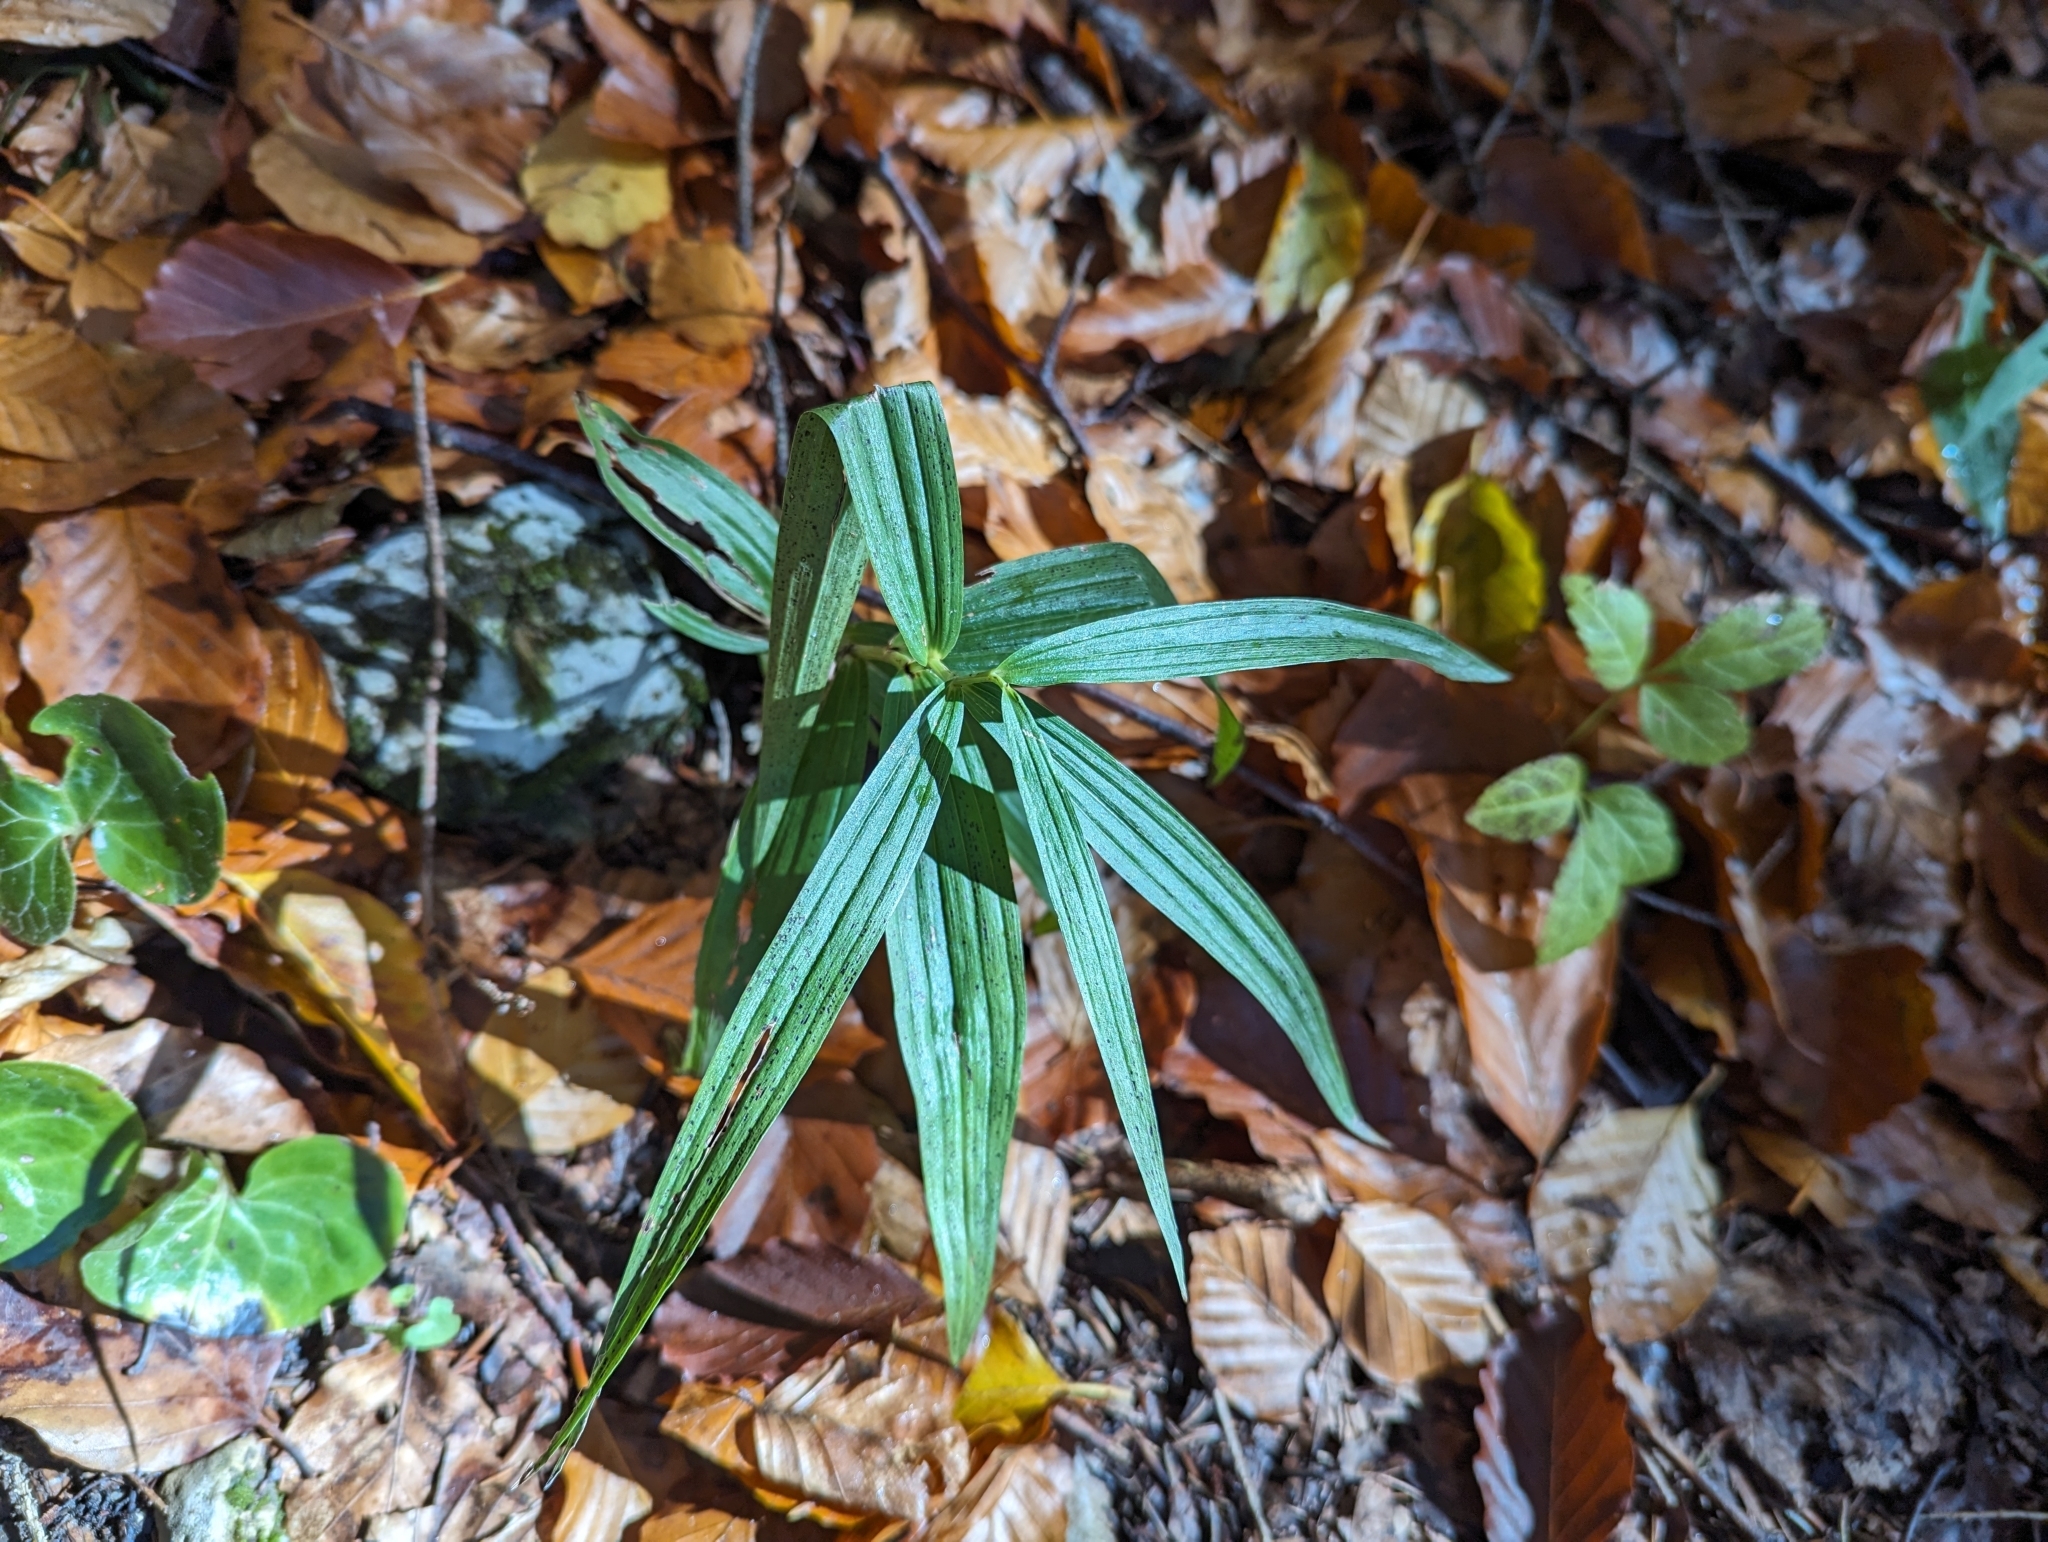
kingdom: Plantae
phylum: Tracheophyta
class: Liliopsida
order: Asparagales
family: Orchidaceae
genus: Cephalanthera
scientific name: Cephalanthera longifolia
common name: Narrow-leaved helleborine
